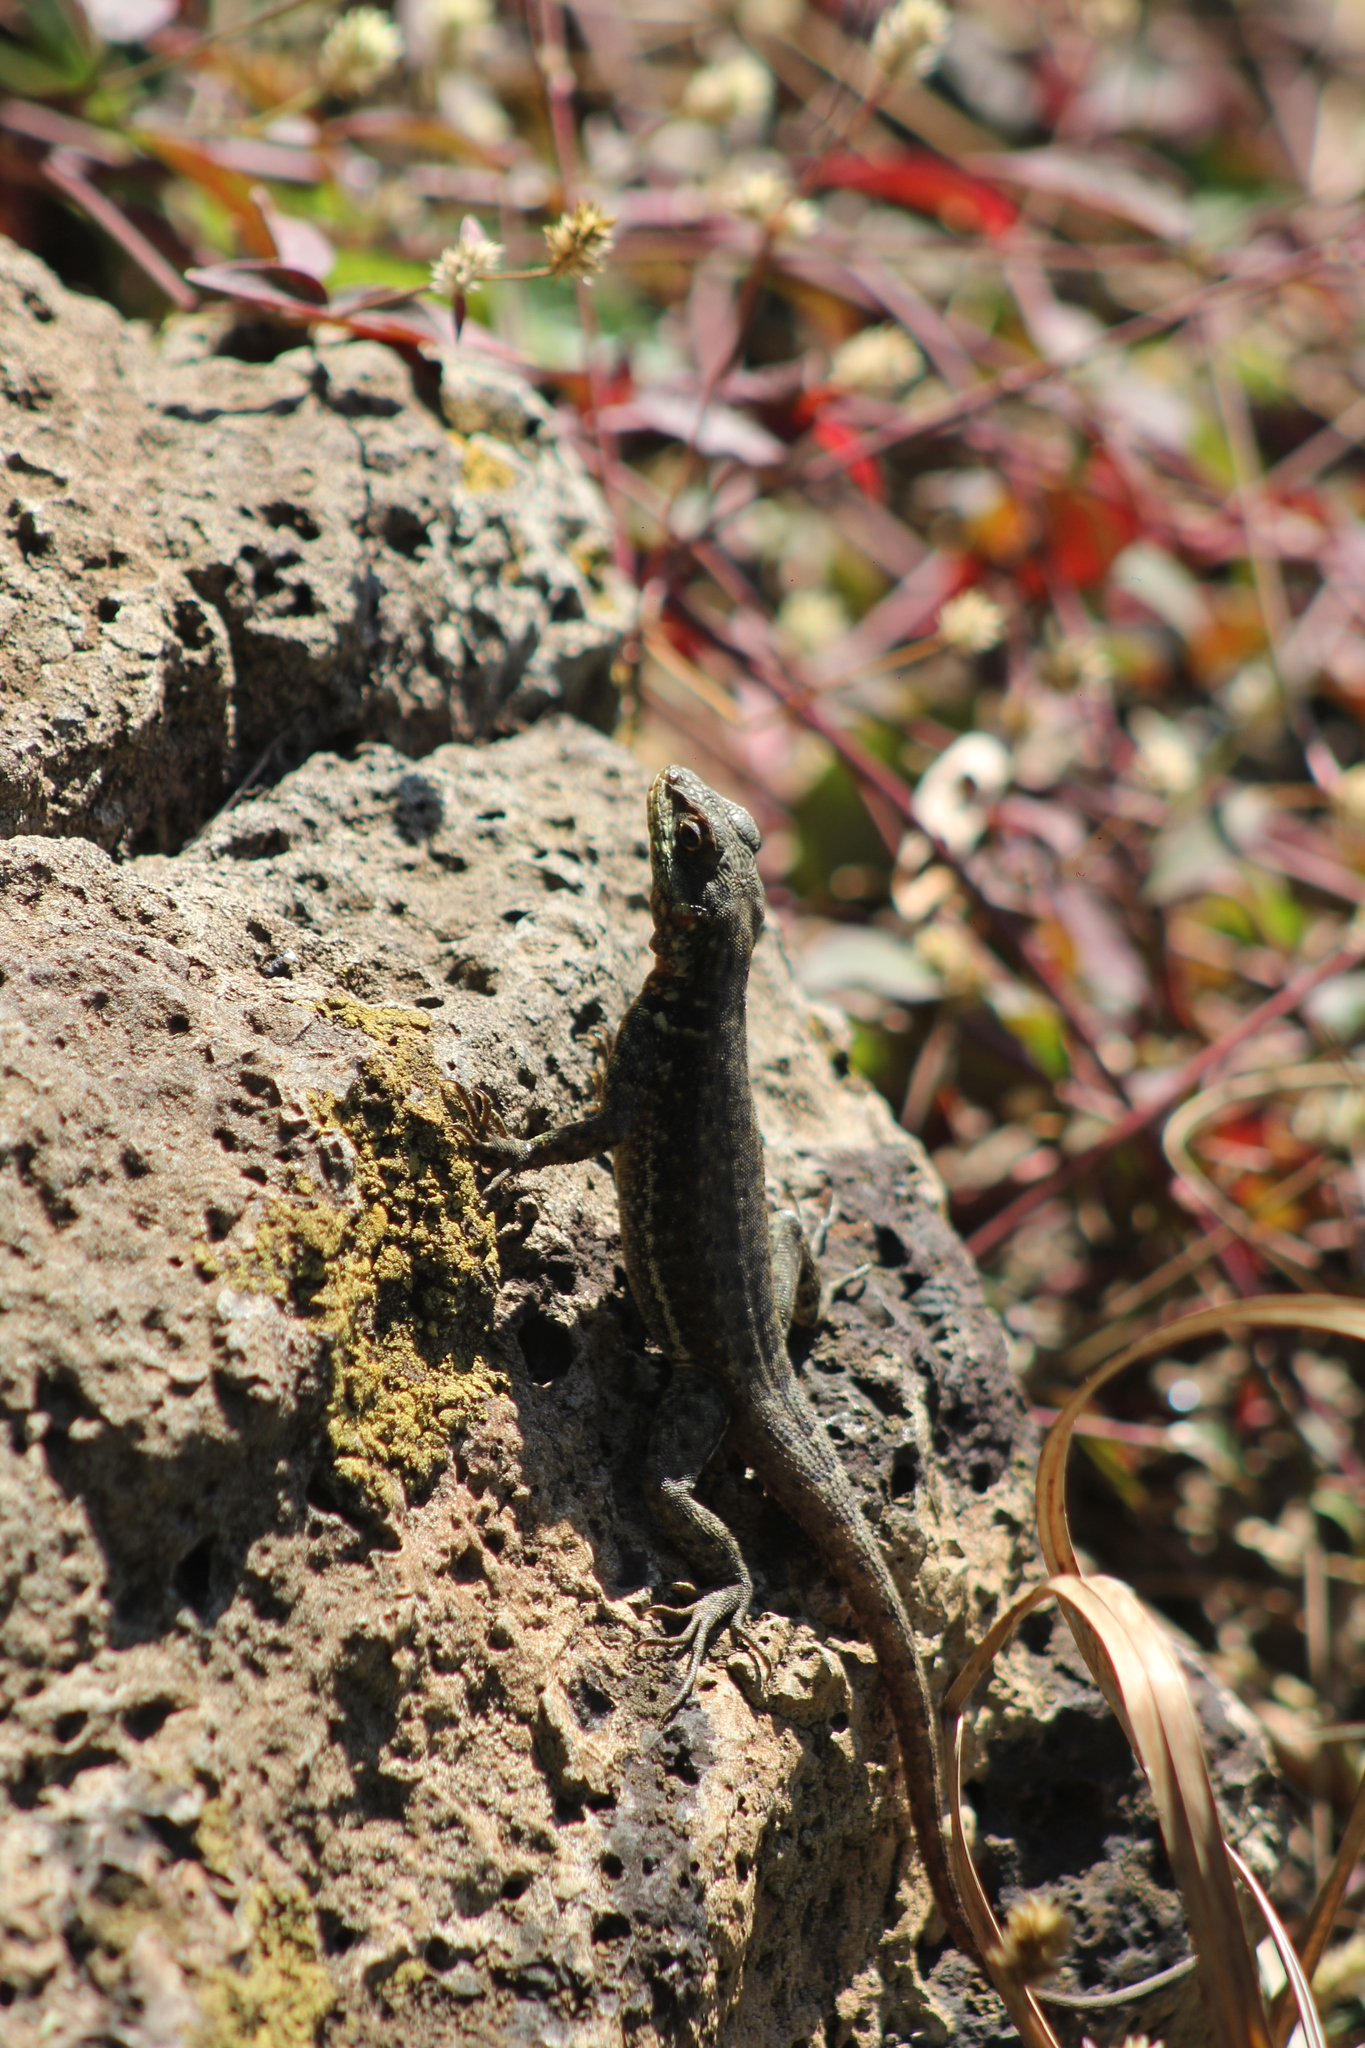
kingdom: Animalia
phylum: Chordata
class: Squamata
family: Tropiduridae
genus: Tropidurus
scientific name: Tropidurus catalanensis
